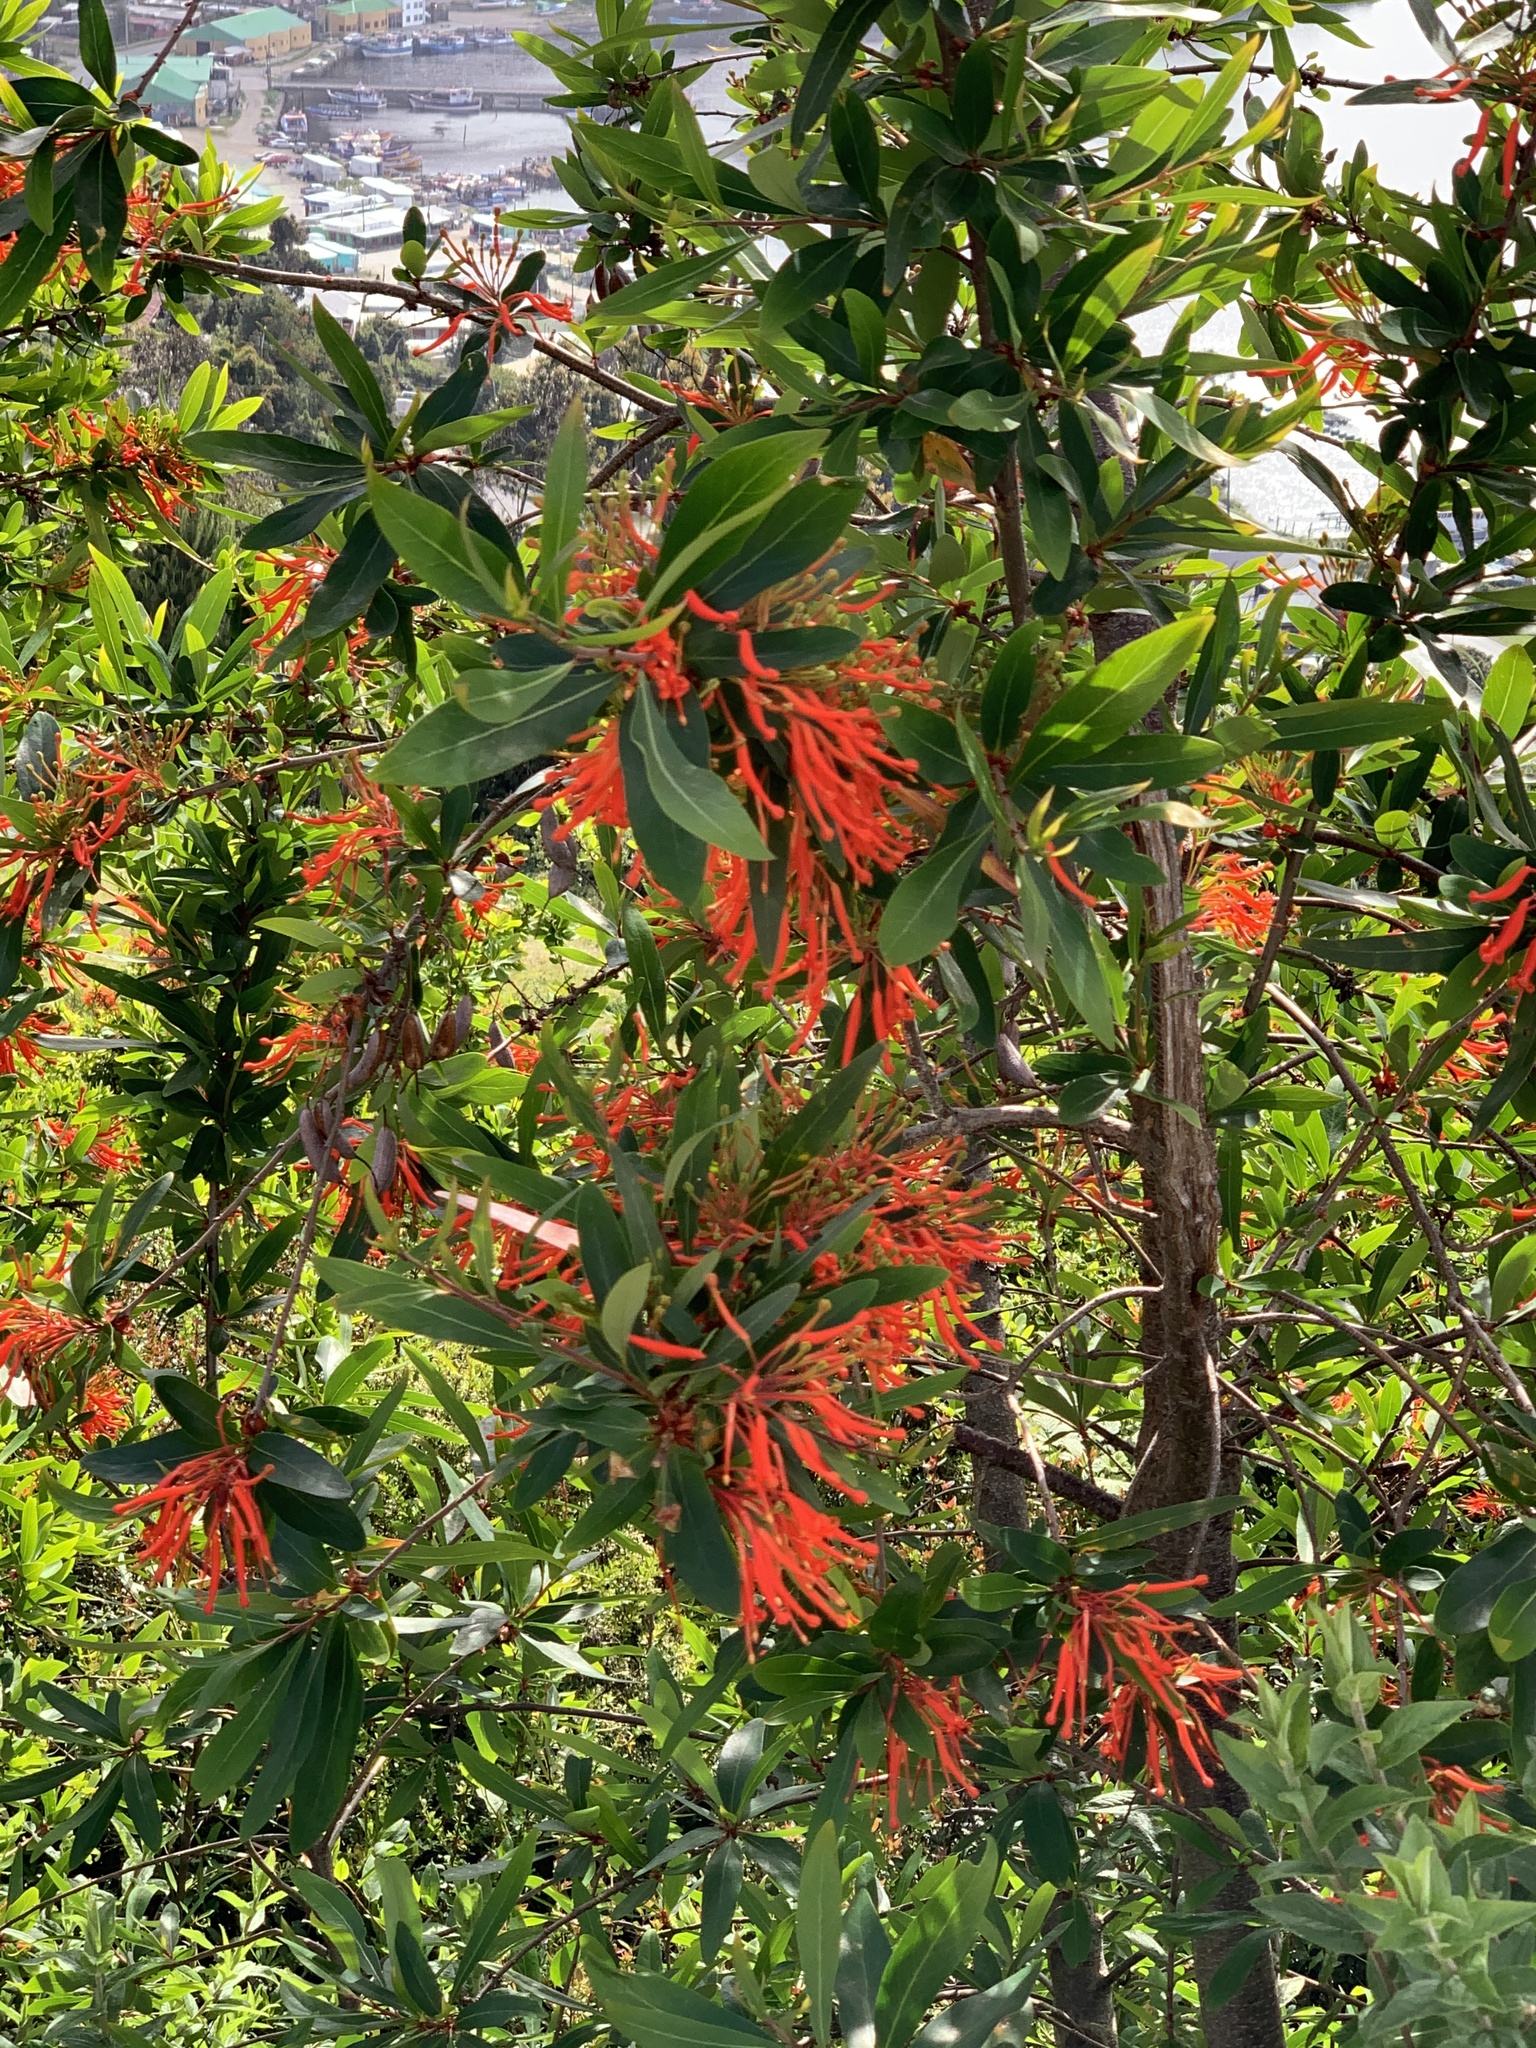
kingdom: Plantae
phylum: Tracheophyta
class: Magnoliopsida
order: Proteales
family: Proteaceae
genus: Embothrium
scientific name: Embothrium coccineum
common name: Chilean firebush
